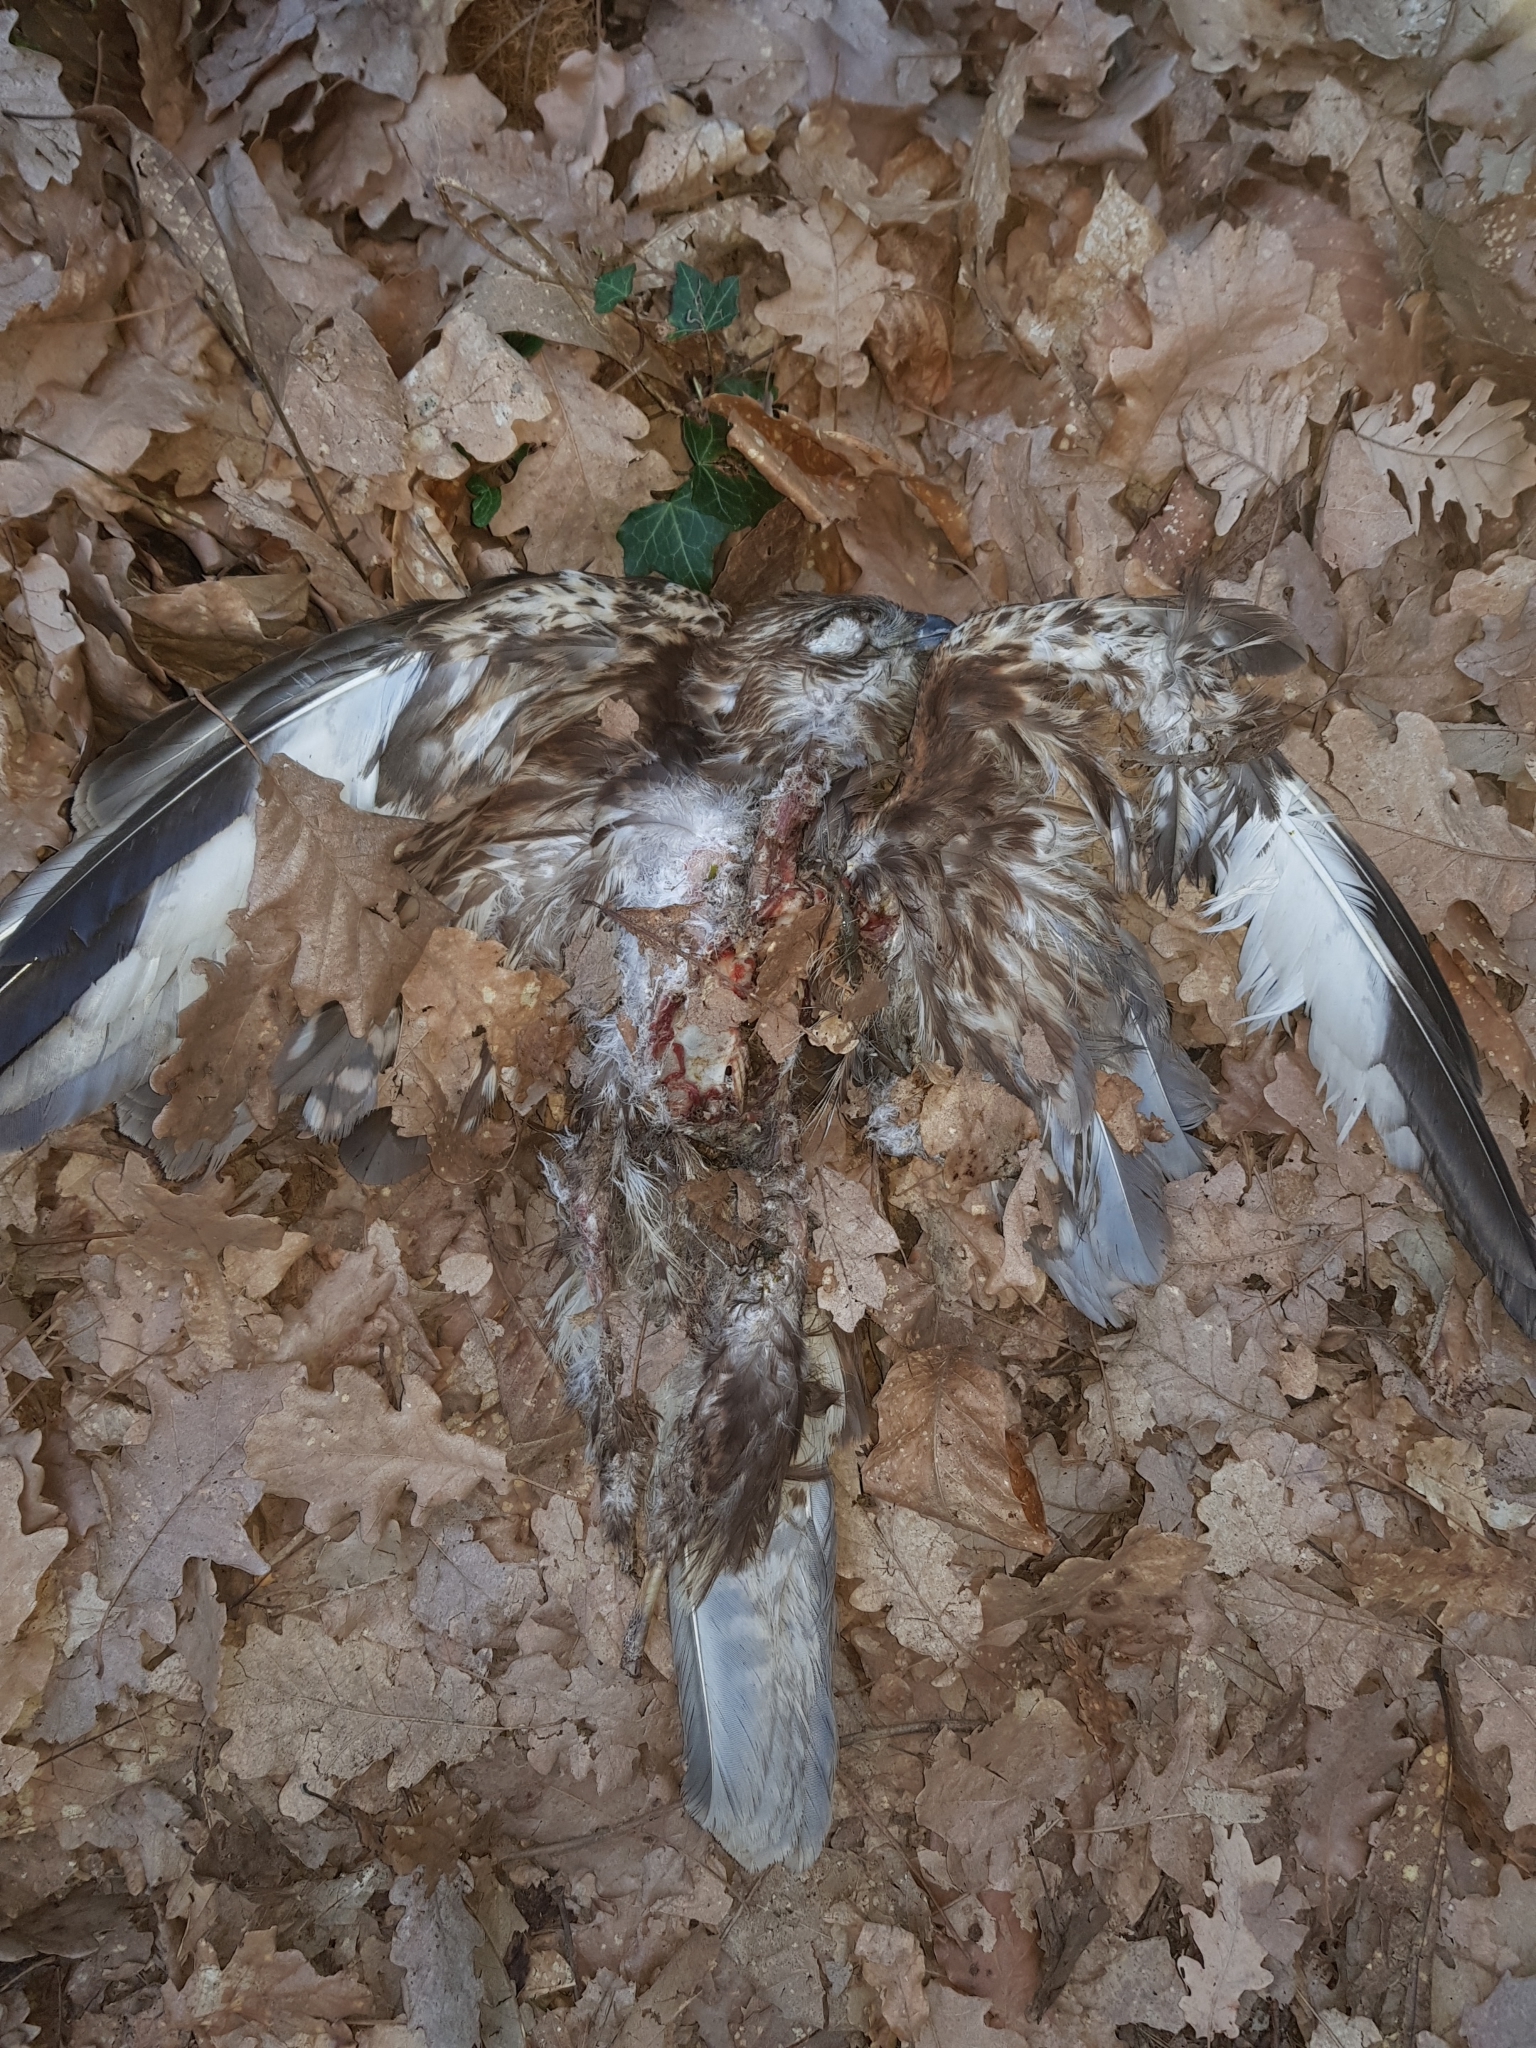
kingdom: Animalia
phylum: Chordata
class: Aves
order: Accipitriformes
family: Accipitridae
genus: Buteo
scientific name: Buteo buteo
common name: Common buzzard
